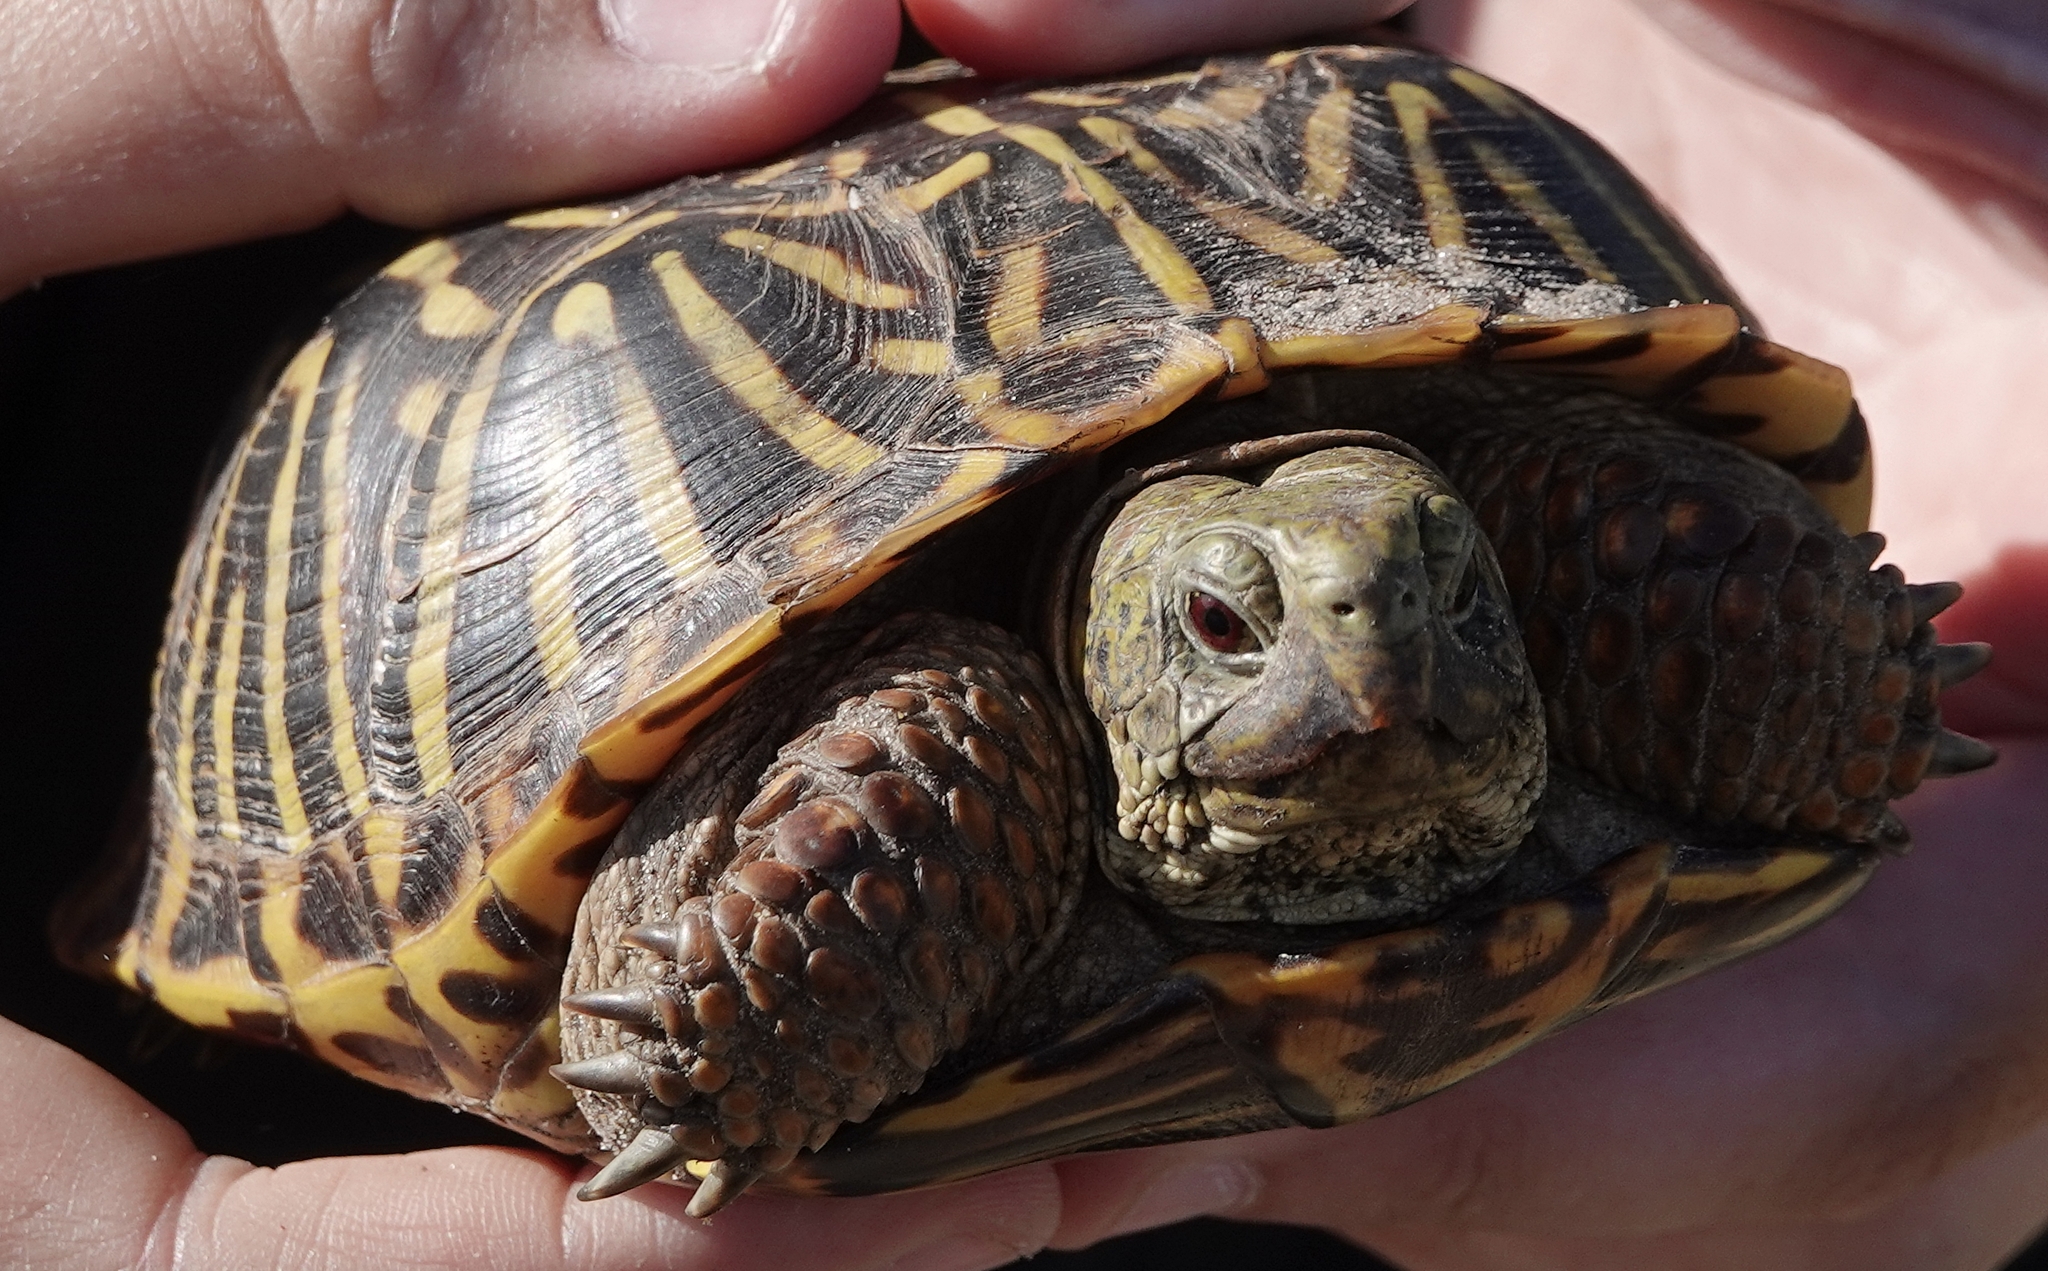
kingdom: Animalia
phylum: Chordata
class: Testudines
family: Emydidae
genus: Terrapene
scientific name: Terrapene ornata
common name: Western box turtle
